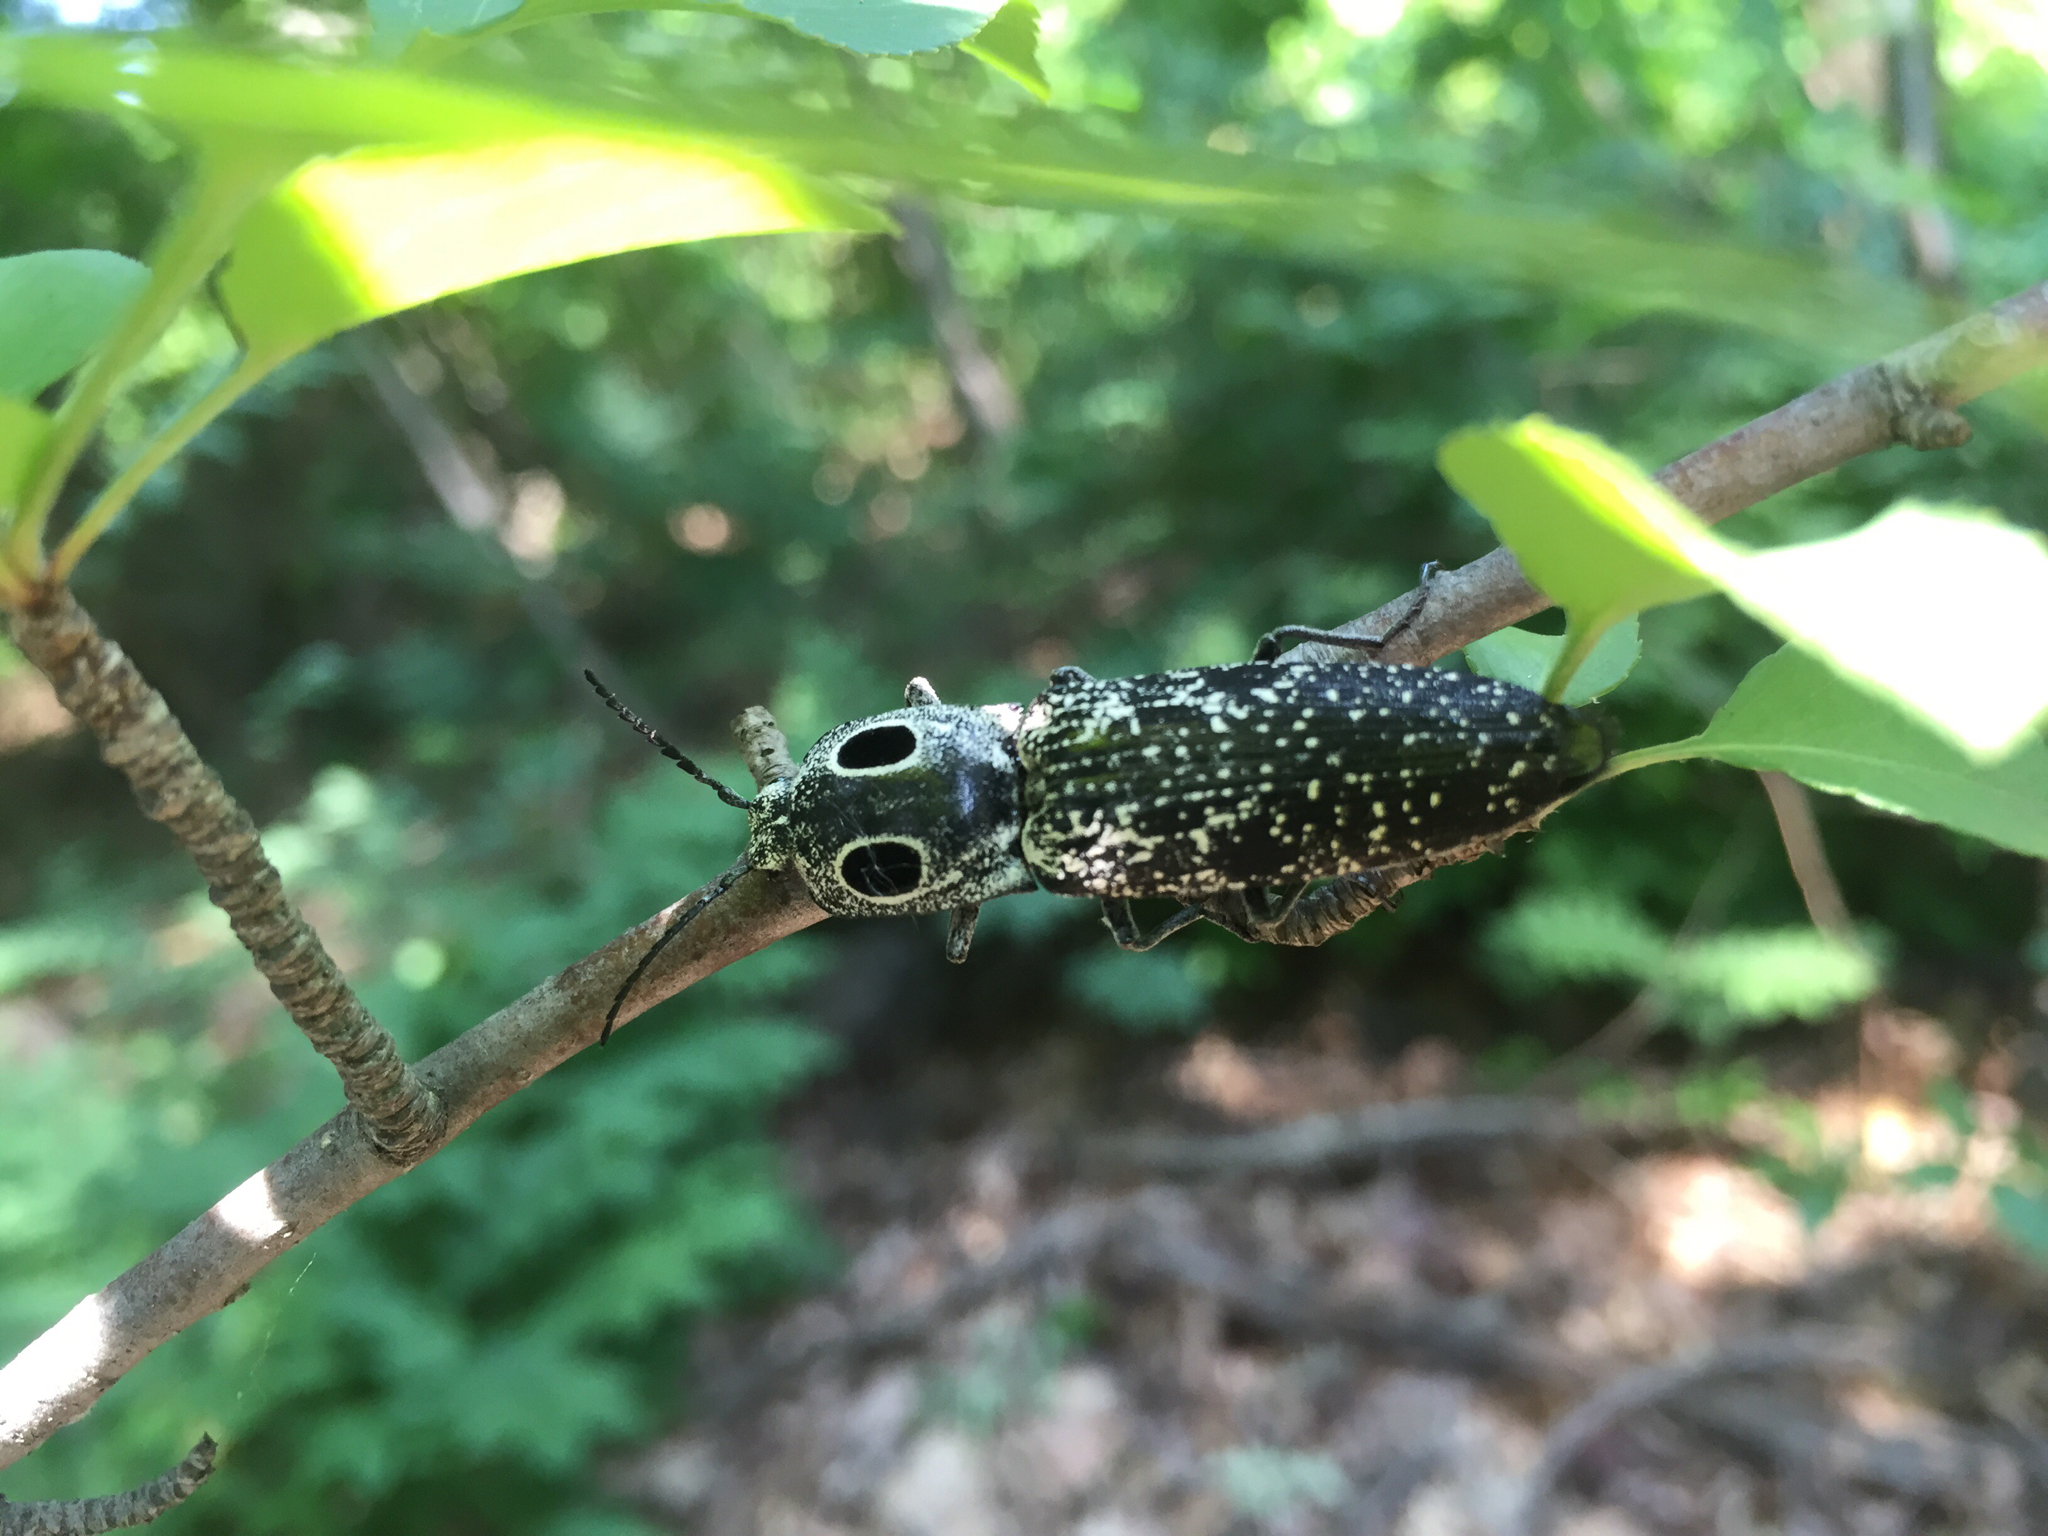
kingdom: Animalia
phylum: Arthropoda
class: Insecta
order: Coleoptera
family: Elateridae
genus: Alaus
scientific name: Alaus oculatus
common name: Eastern eyed click beetle
